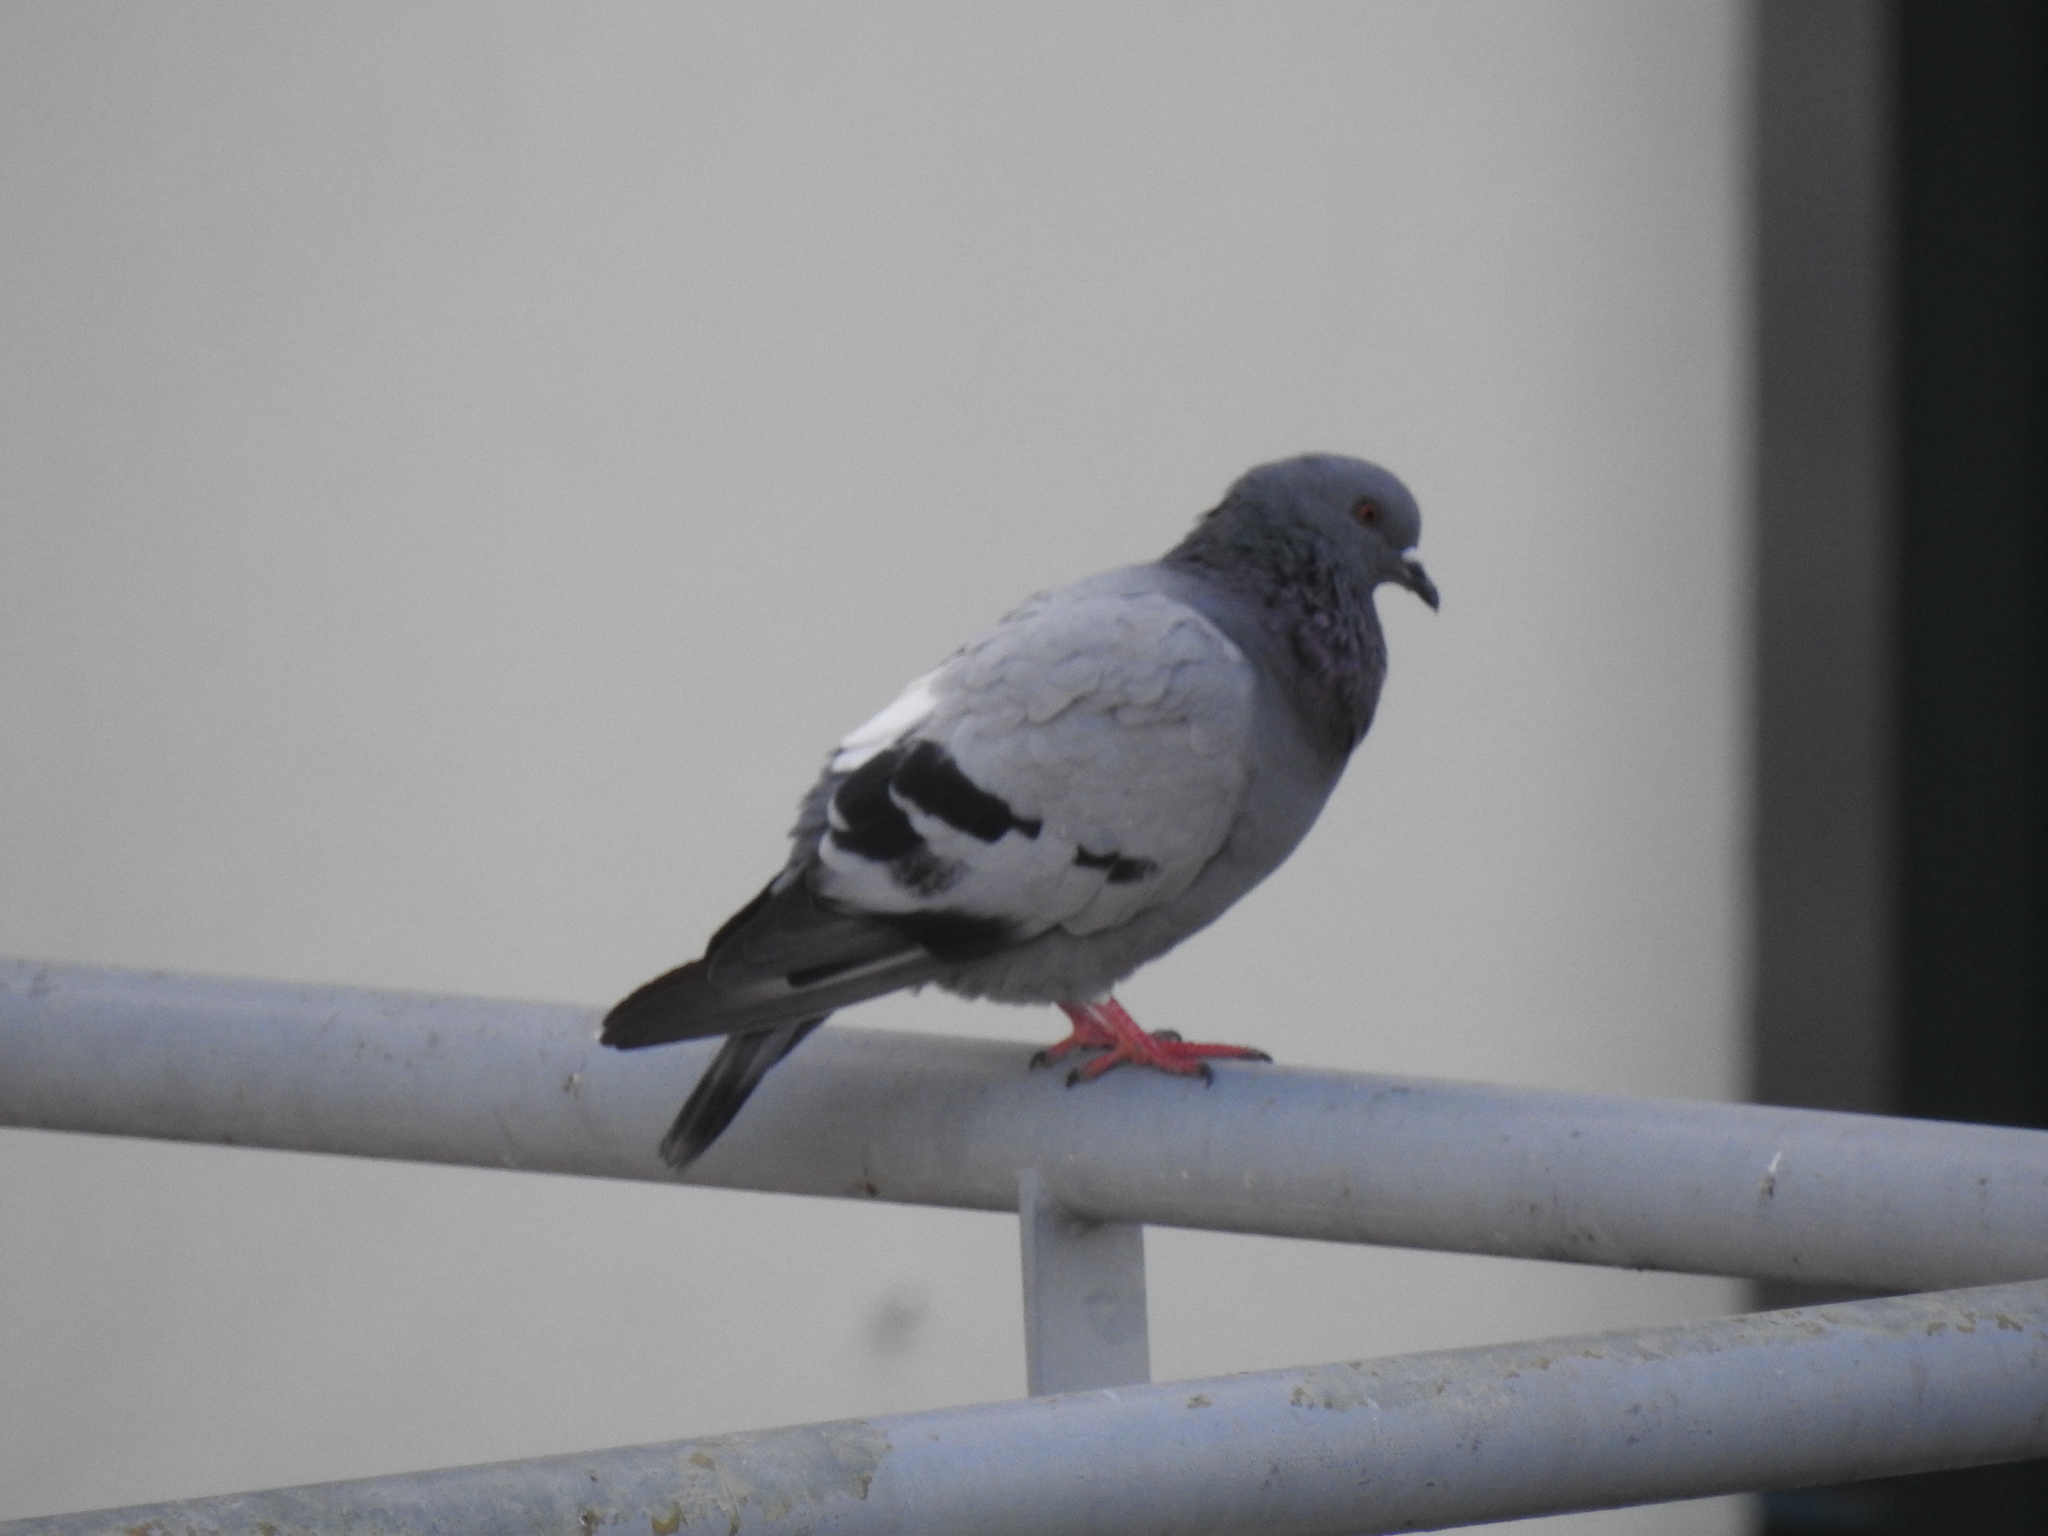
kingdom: Animalia
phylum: Chordata
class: Aves
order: Columbiformes
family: Columbidae
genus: Columba
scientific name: Columba livia
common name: Rock pigeon
